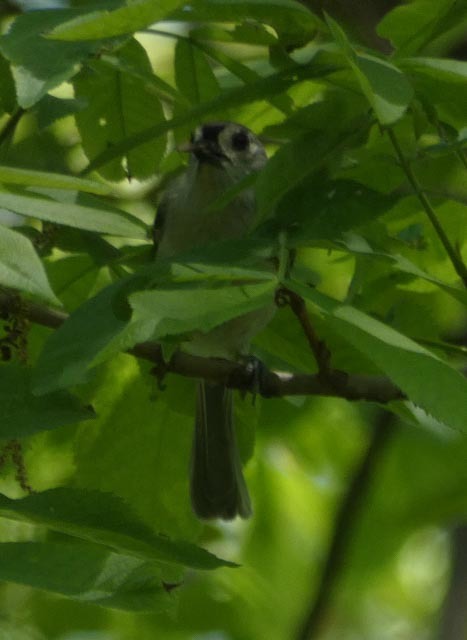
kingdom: Animalia
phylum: Chordata
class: Aves
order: Passeriformes
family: Paridae
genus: Baeolophus
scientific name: Baeolophus bicolor
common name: Tufted titmouse
